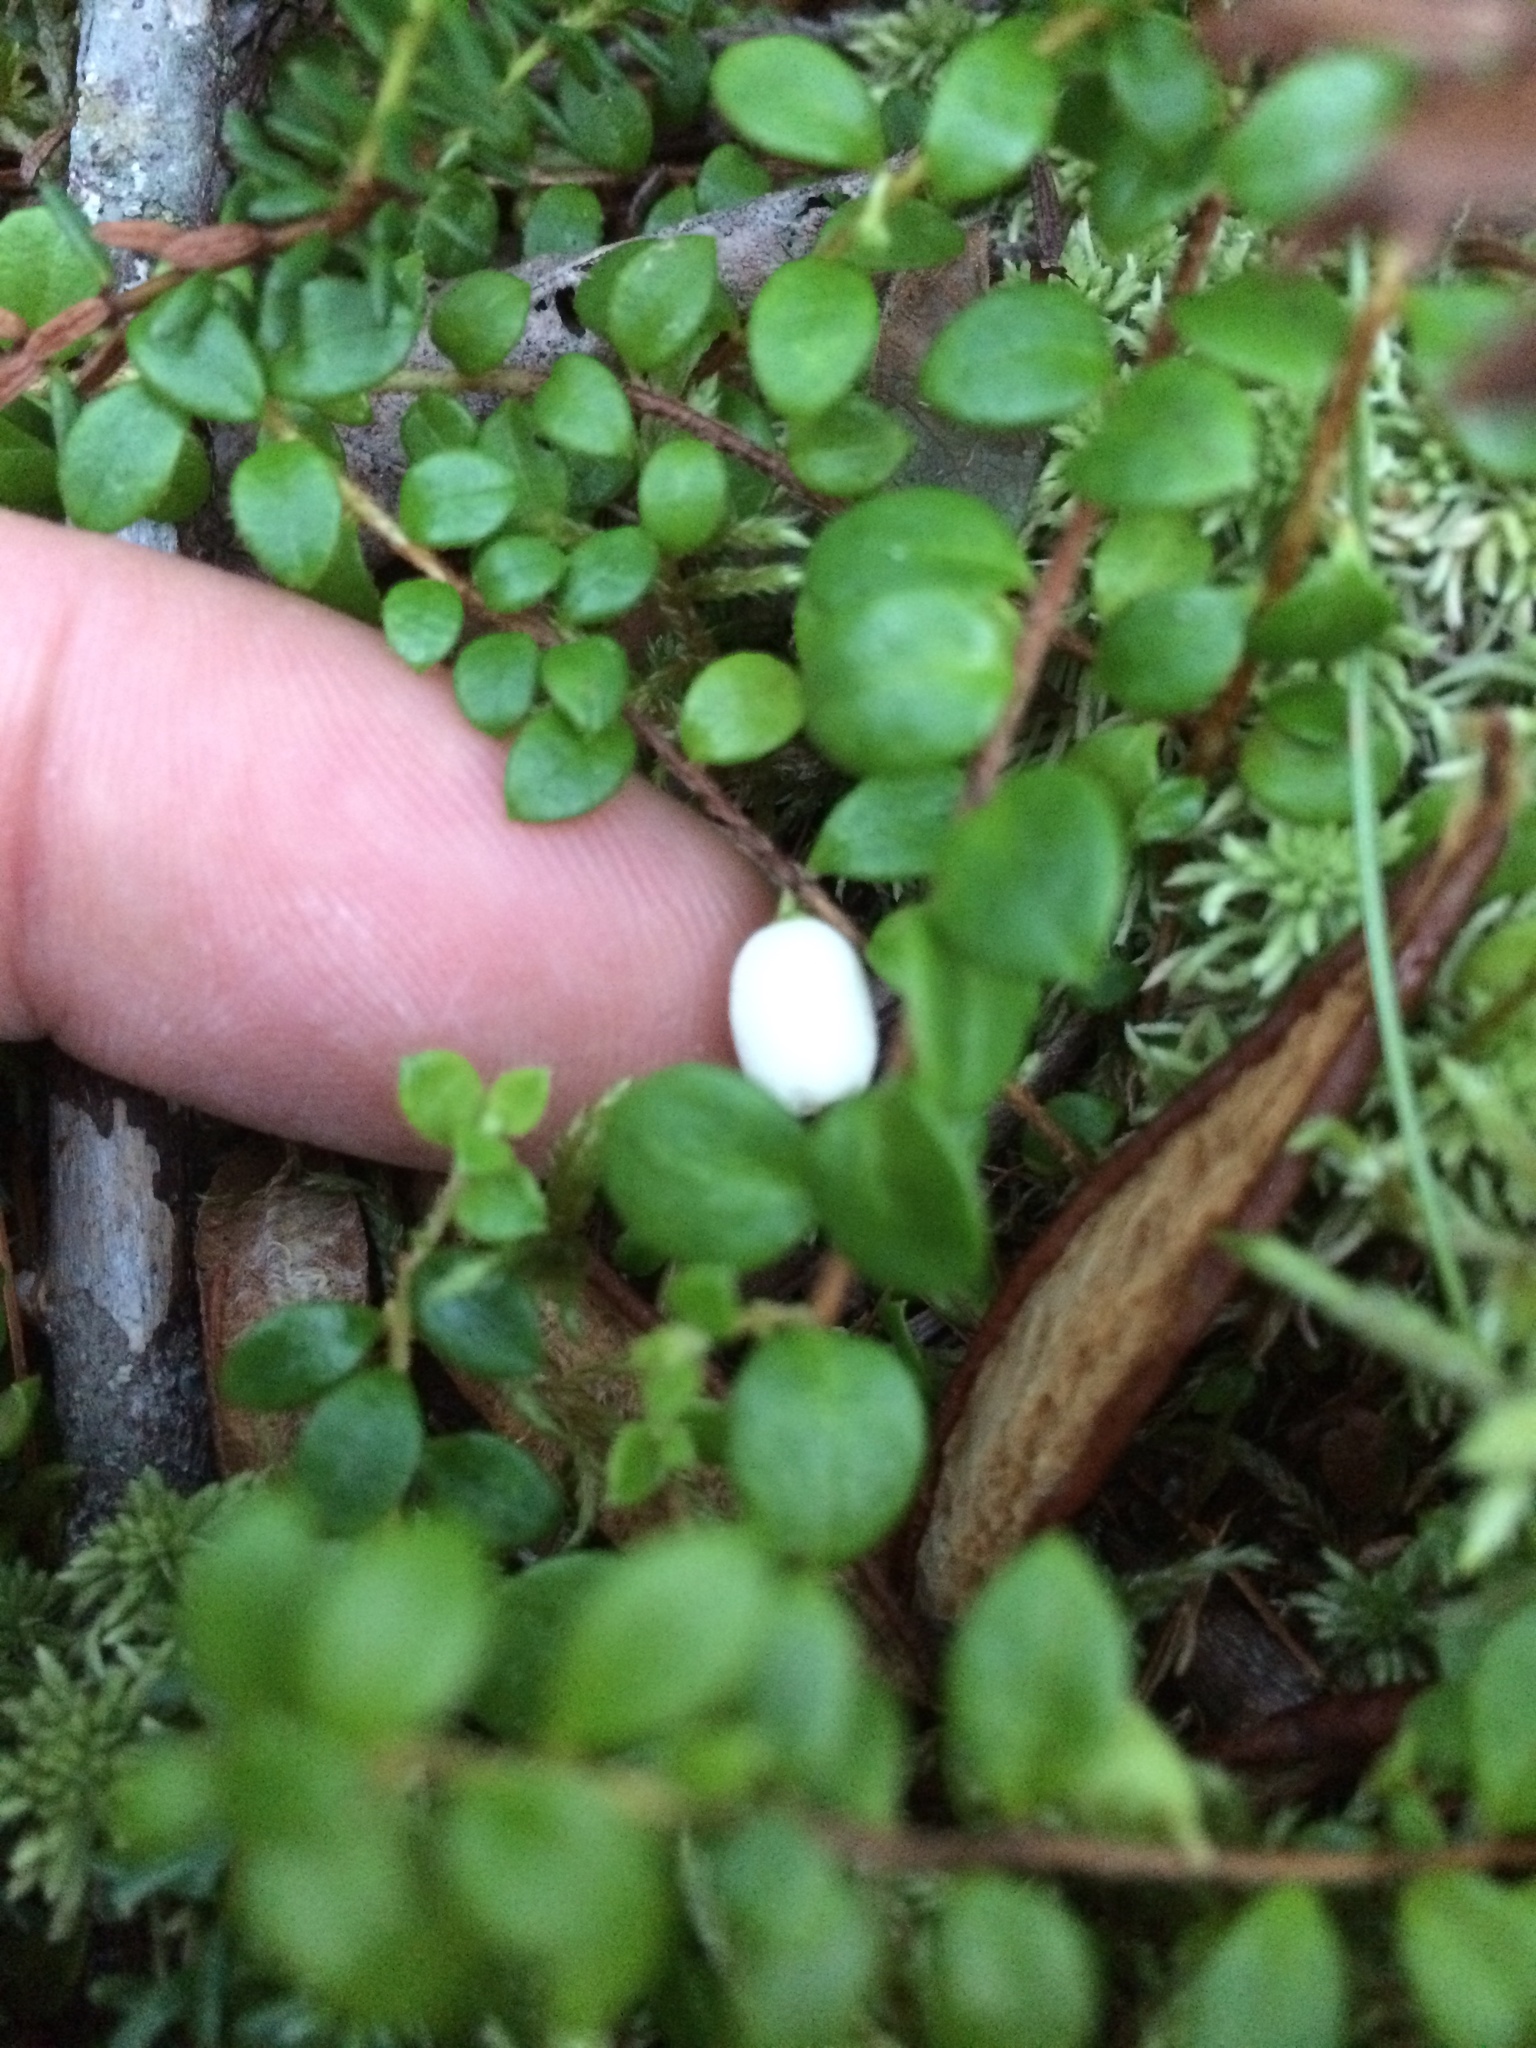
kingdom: Plantae
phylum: Tracheophyta
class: Magnoliopsida
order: Ericales
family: Ericaceae
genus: Gaultheria
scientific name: Gaultheria hispidula
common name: Cancer wintergreen
